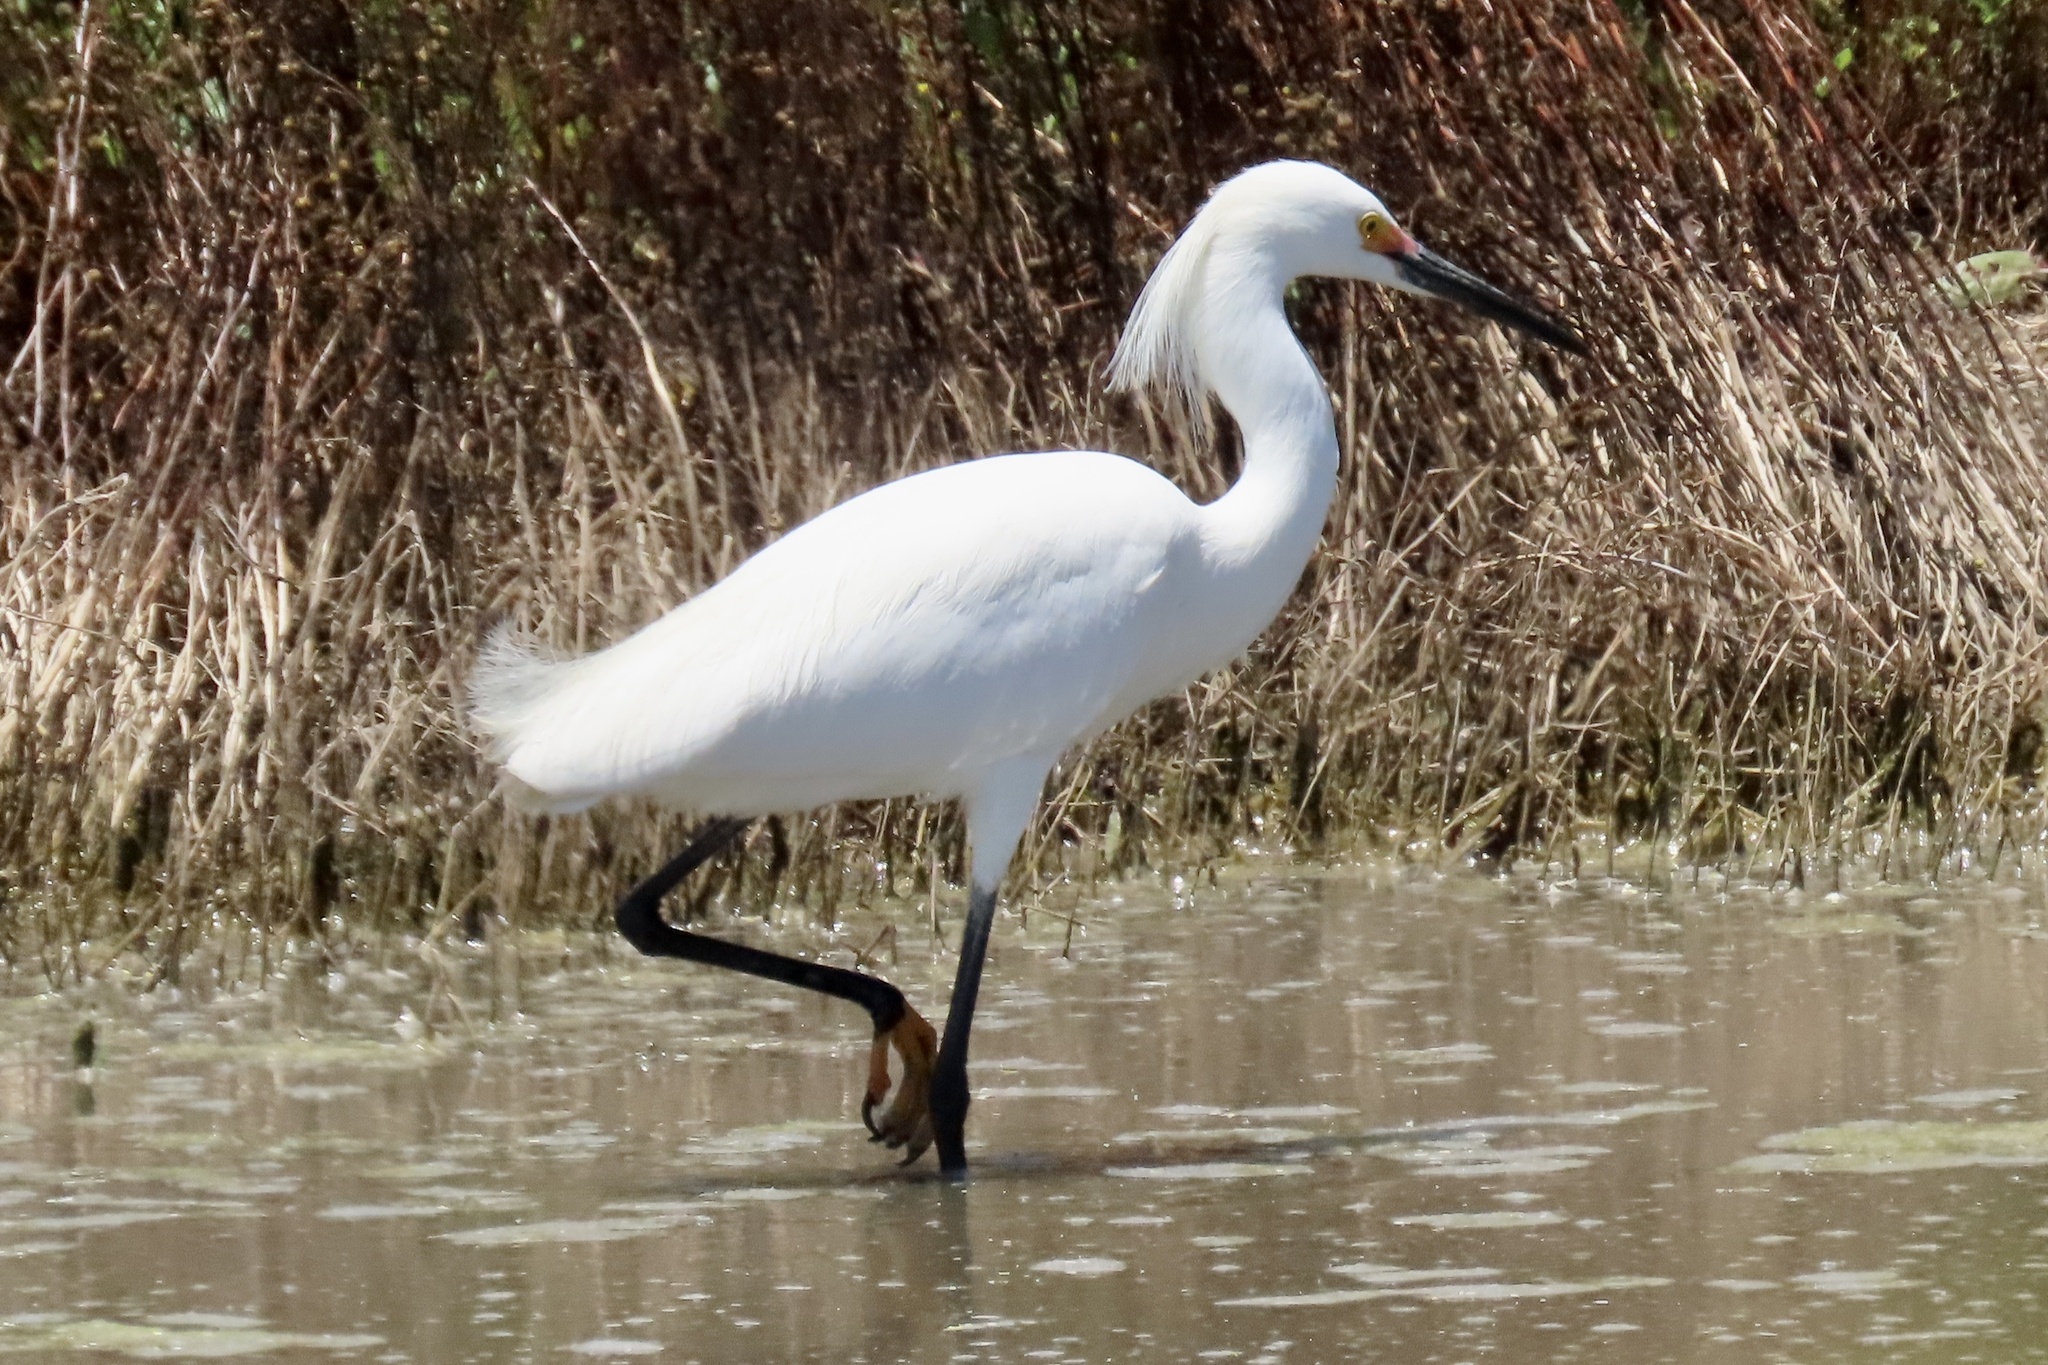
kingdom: Animalia
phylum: Chordata
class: Aves
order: Pelecaniformes
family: Ardeidae
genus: Egretta
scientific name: Egretta thula
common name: Snowy egret
